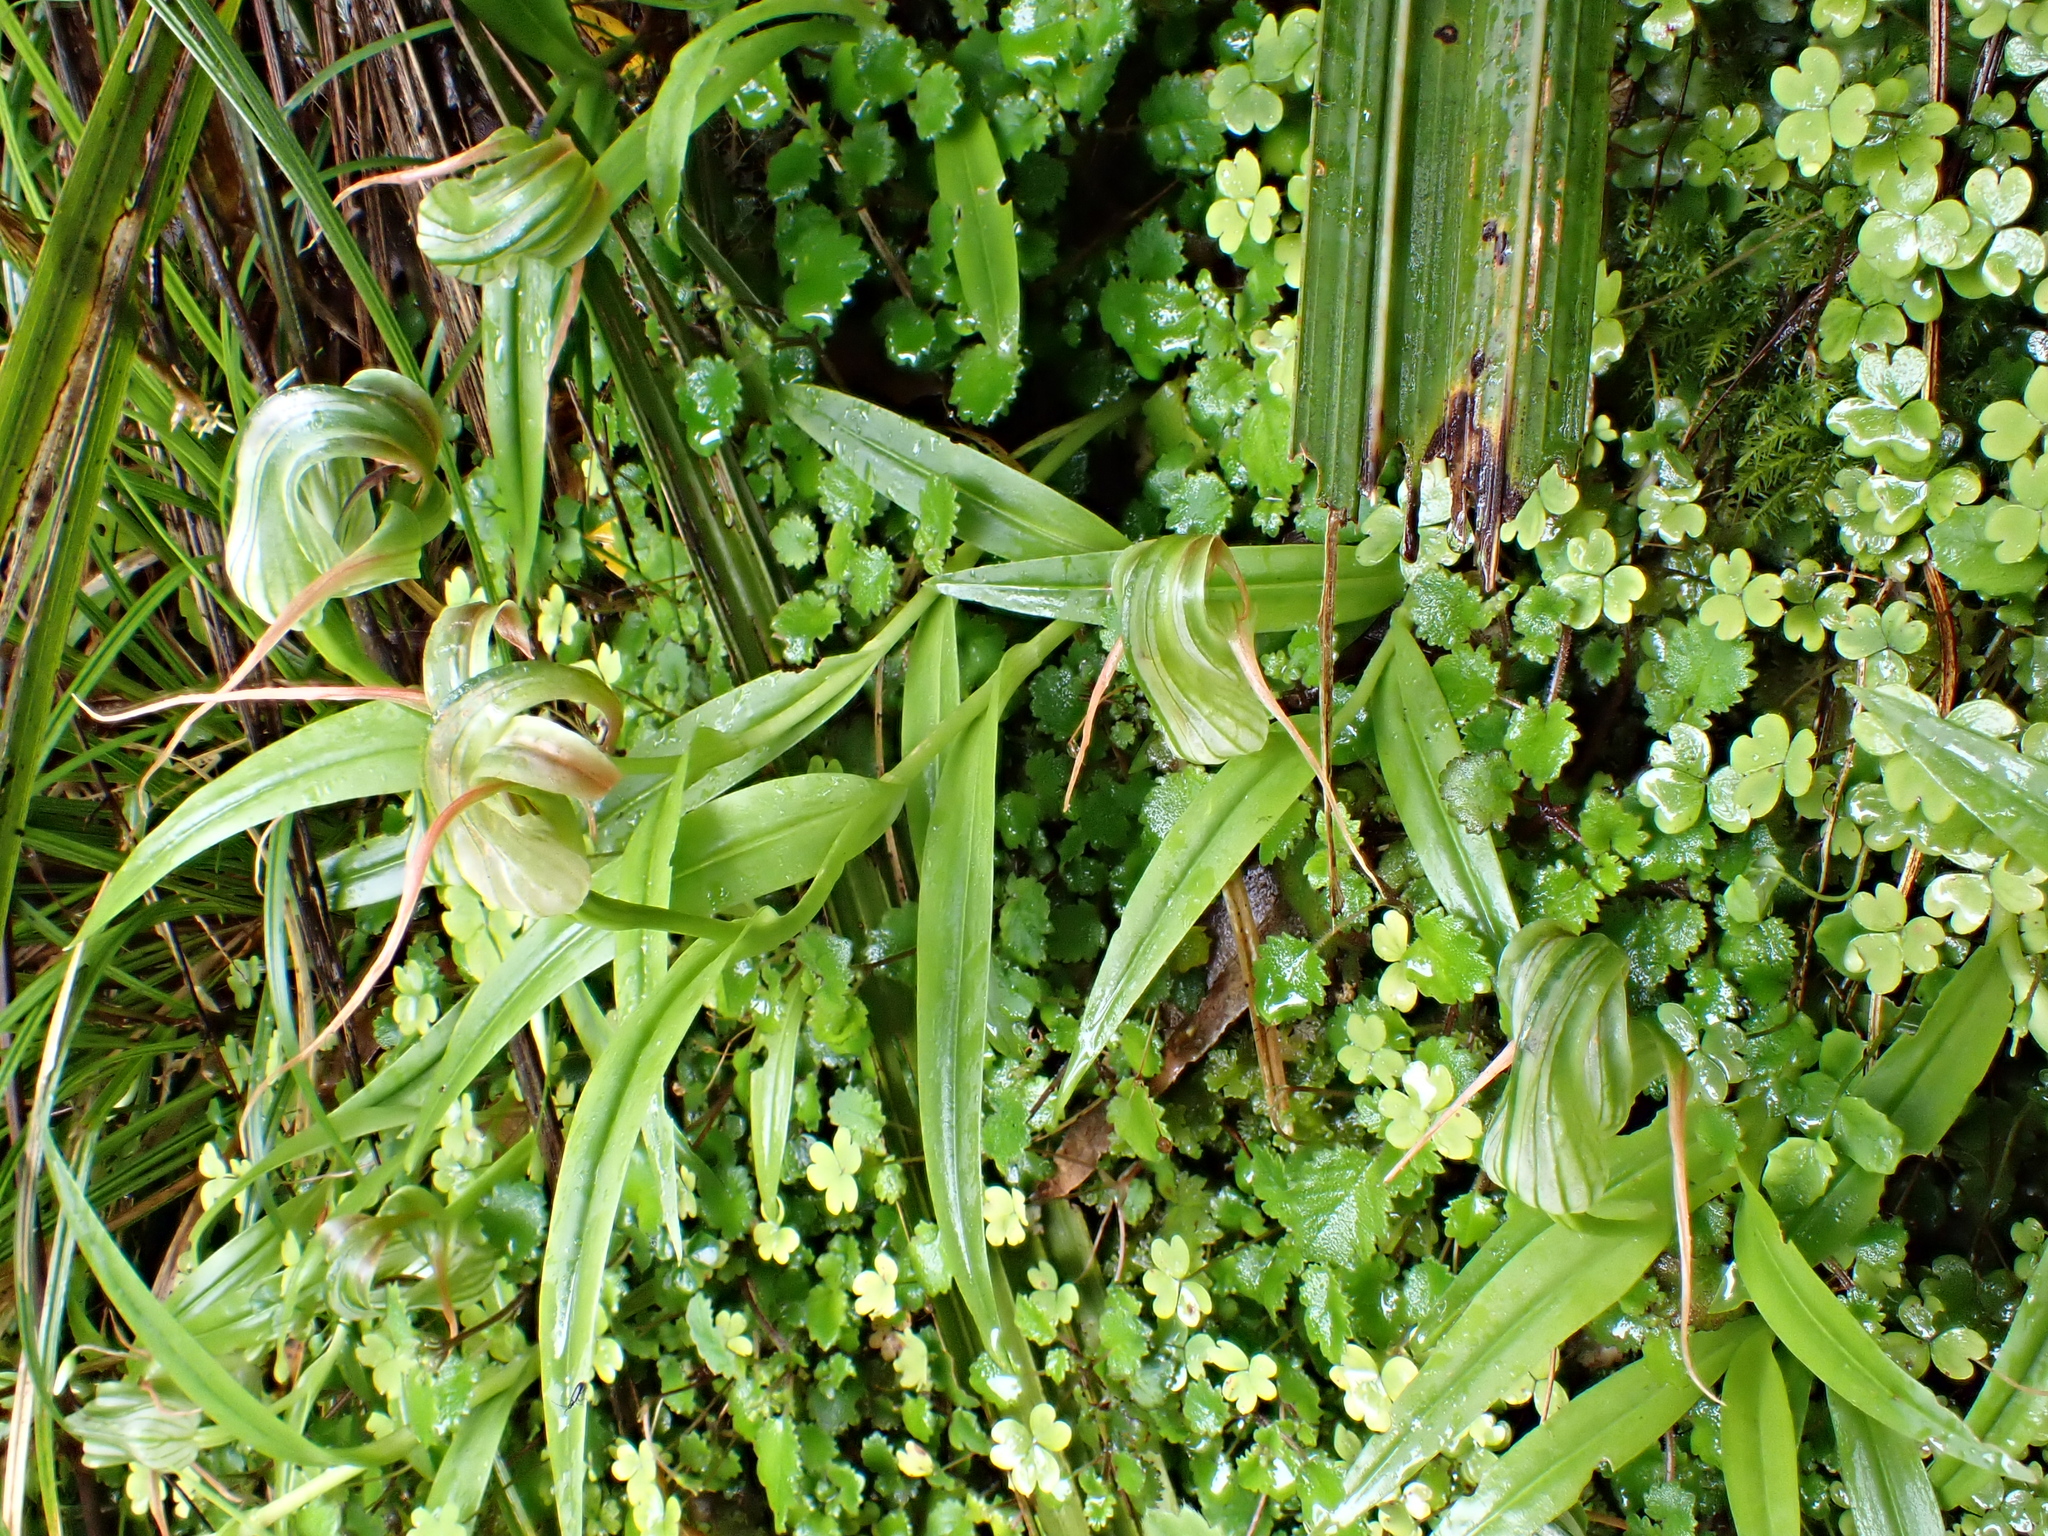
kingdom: Plantae
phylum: Tracheophyta
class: Liliopsida
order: Asparagales
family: Orchidaceae
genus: Pterostylis
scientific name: Pterostylis patens
